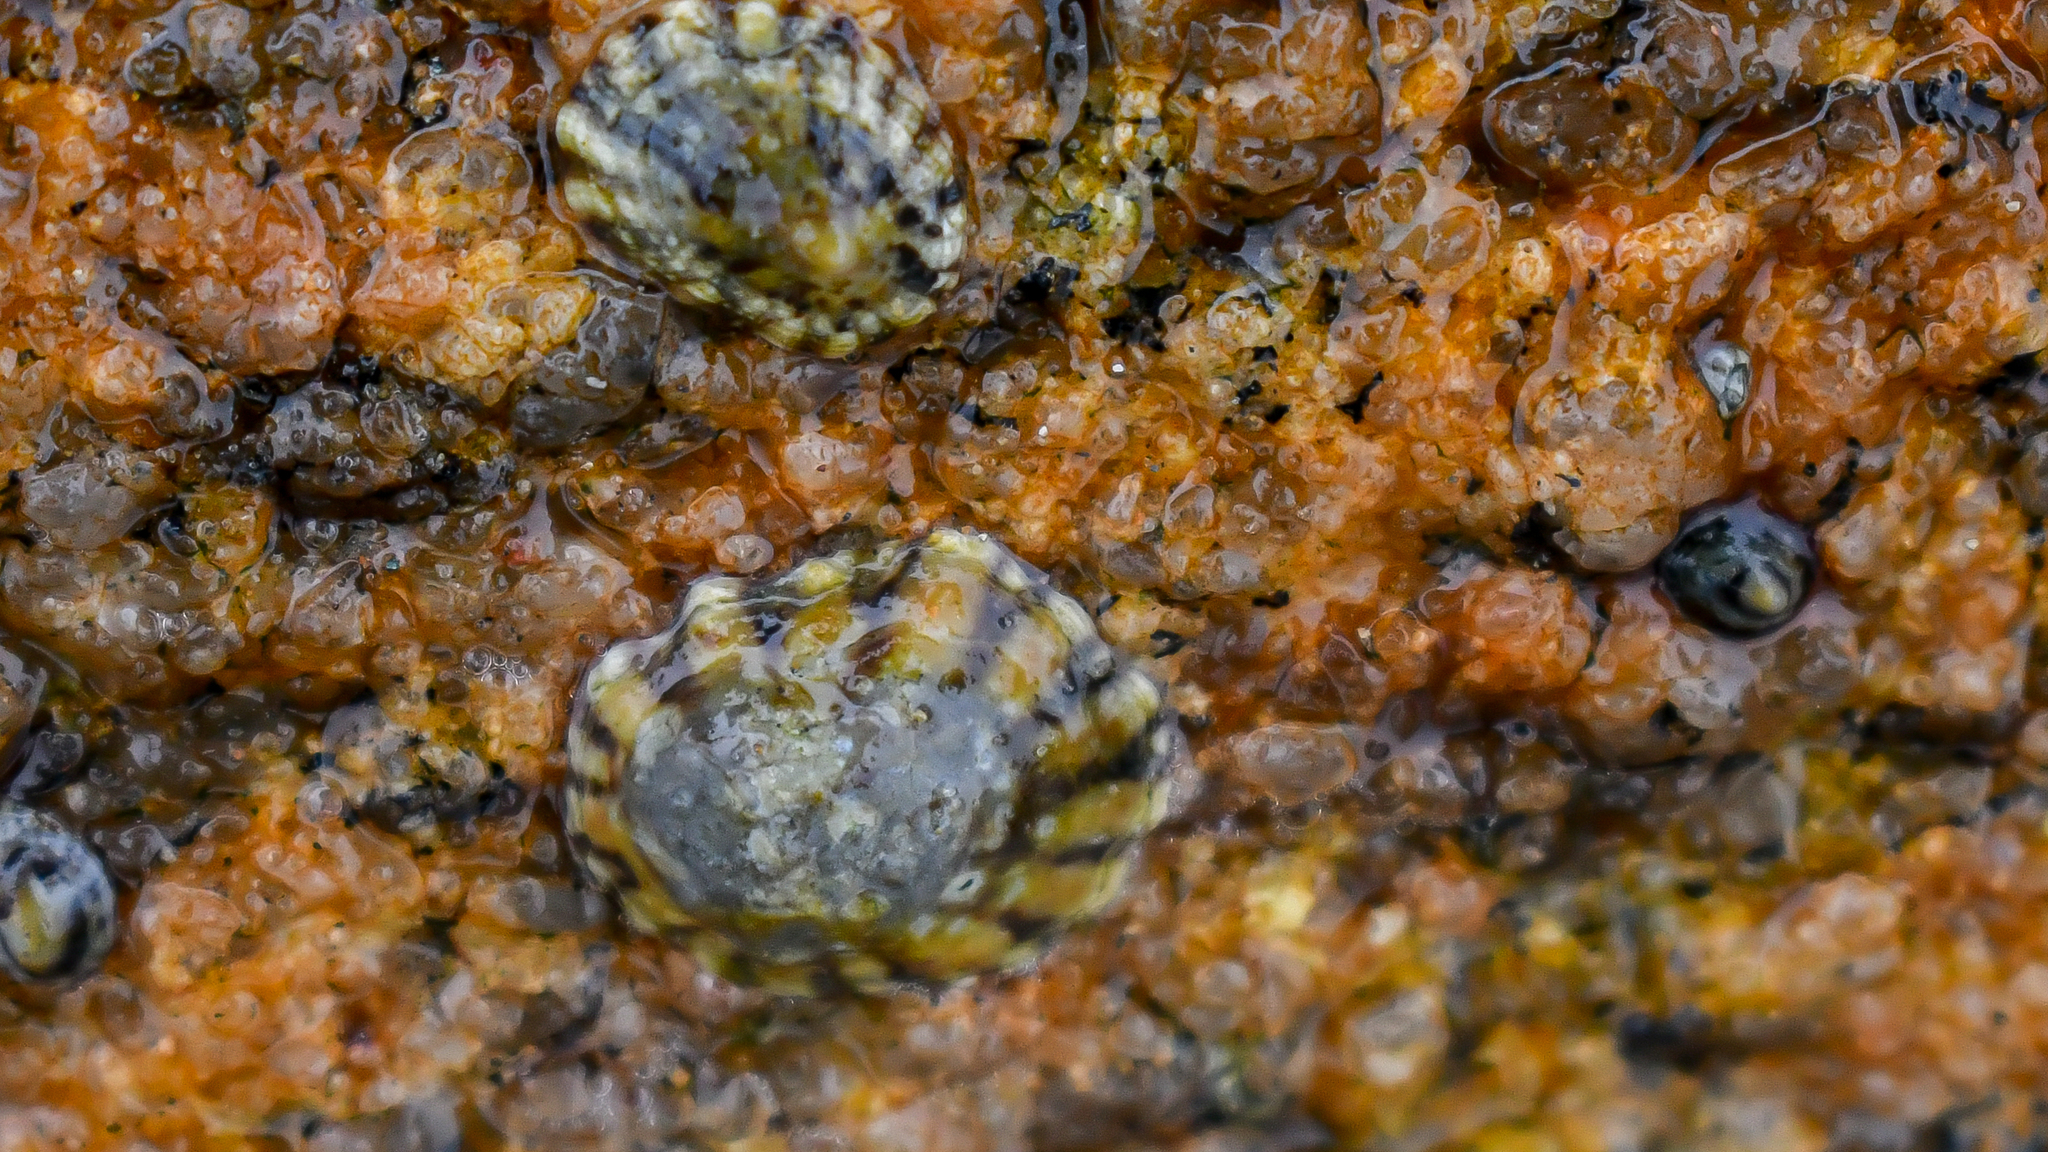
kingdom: Animalia
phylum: Mollusca
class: Gastropoda
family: Lottiidae
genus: Lottia
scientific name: Lottia subrugosa
